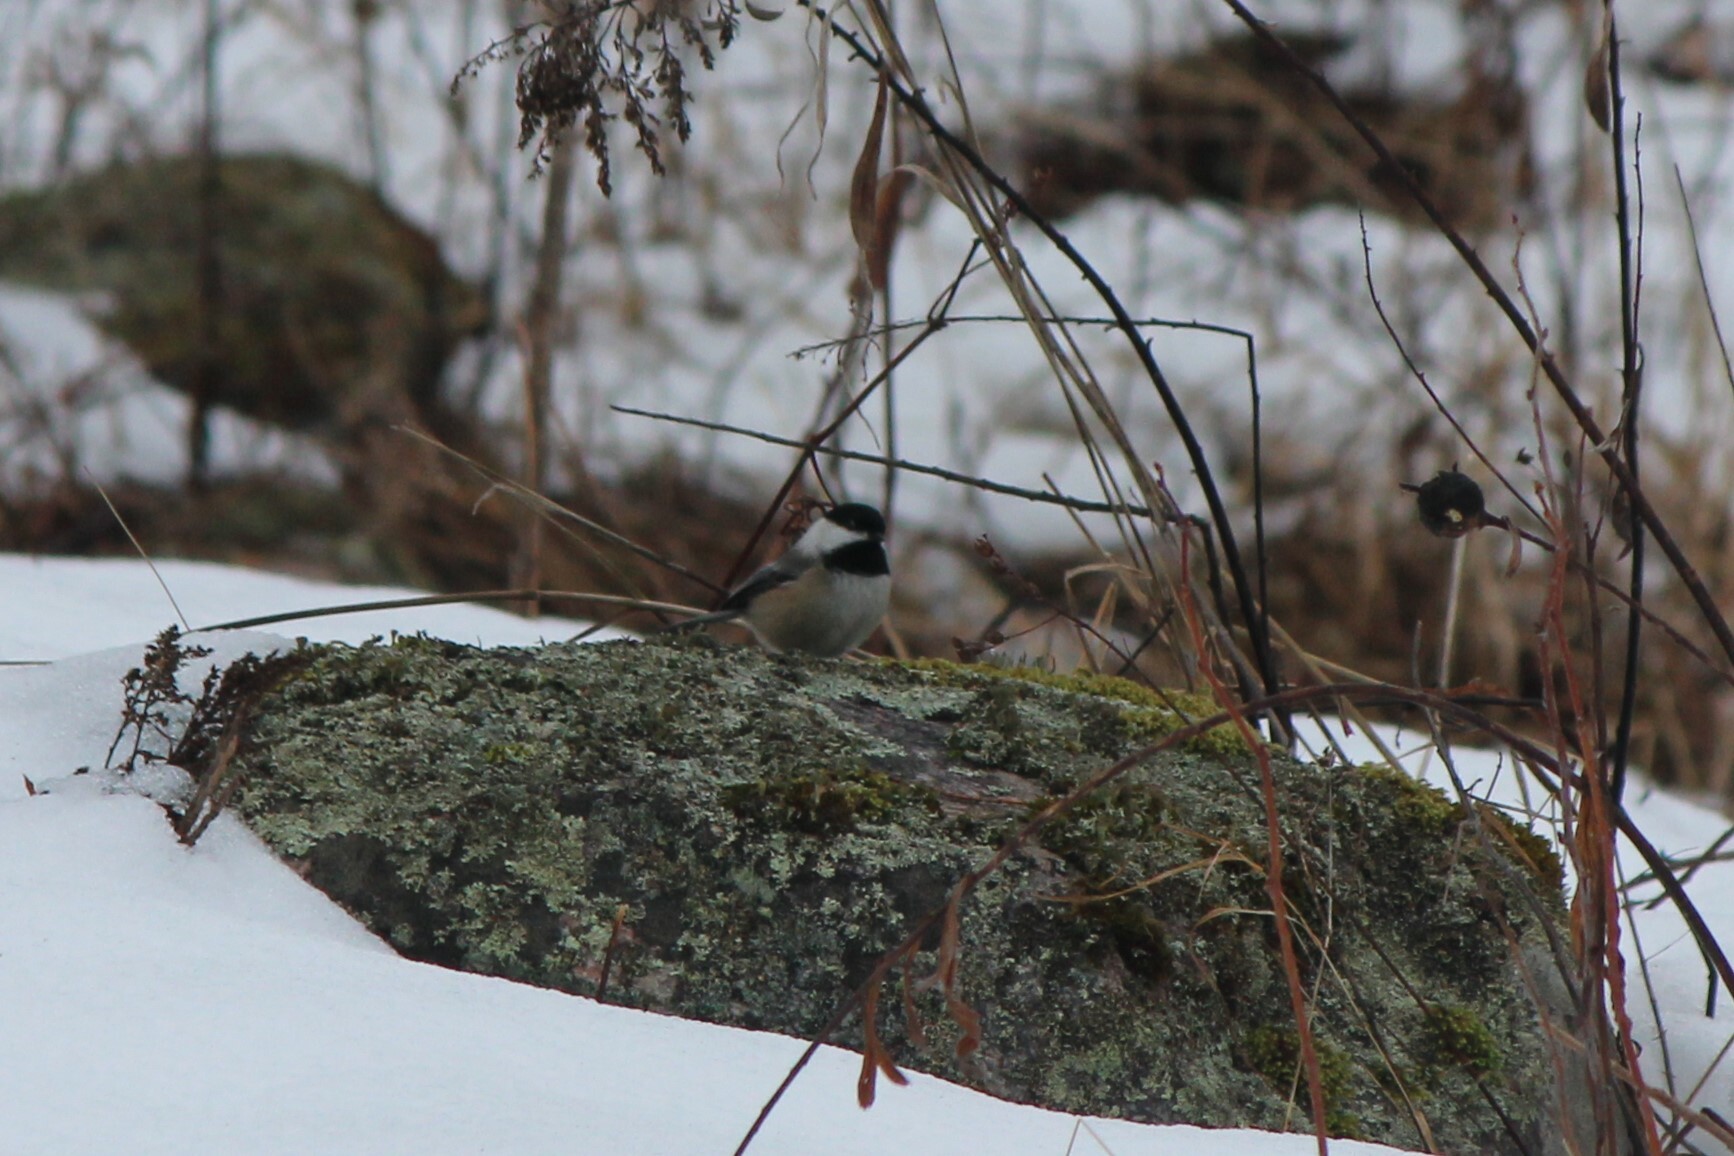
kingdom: Animalia
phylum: Chordata
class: Aves
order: Passeriformes
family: Paridae
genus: Poecile
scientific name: Poecile atricapillus
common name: Black-capped chickadee
